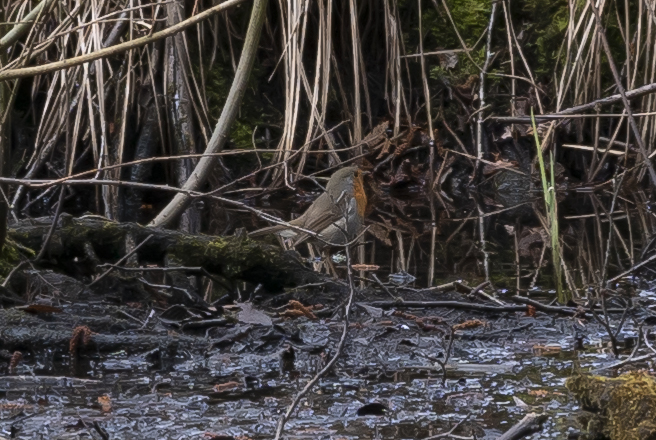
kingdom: Animalia
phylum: Chordata
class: Aves
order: Passeriformes
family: Muscicapidae
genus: Erithacus
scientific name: Erithacus rubecula
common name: European robin
